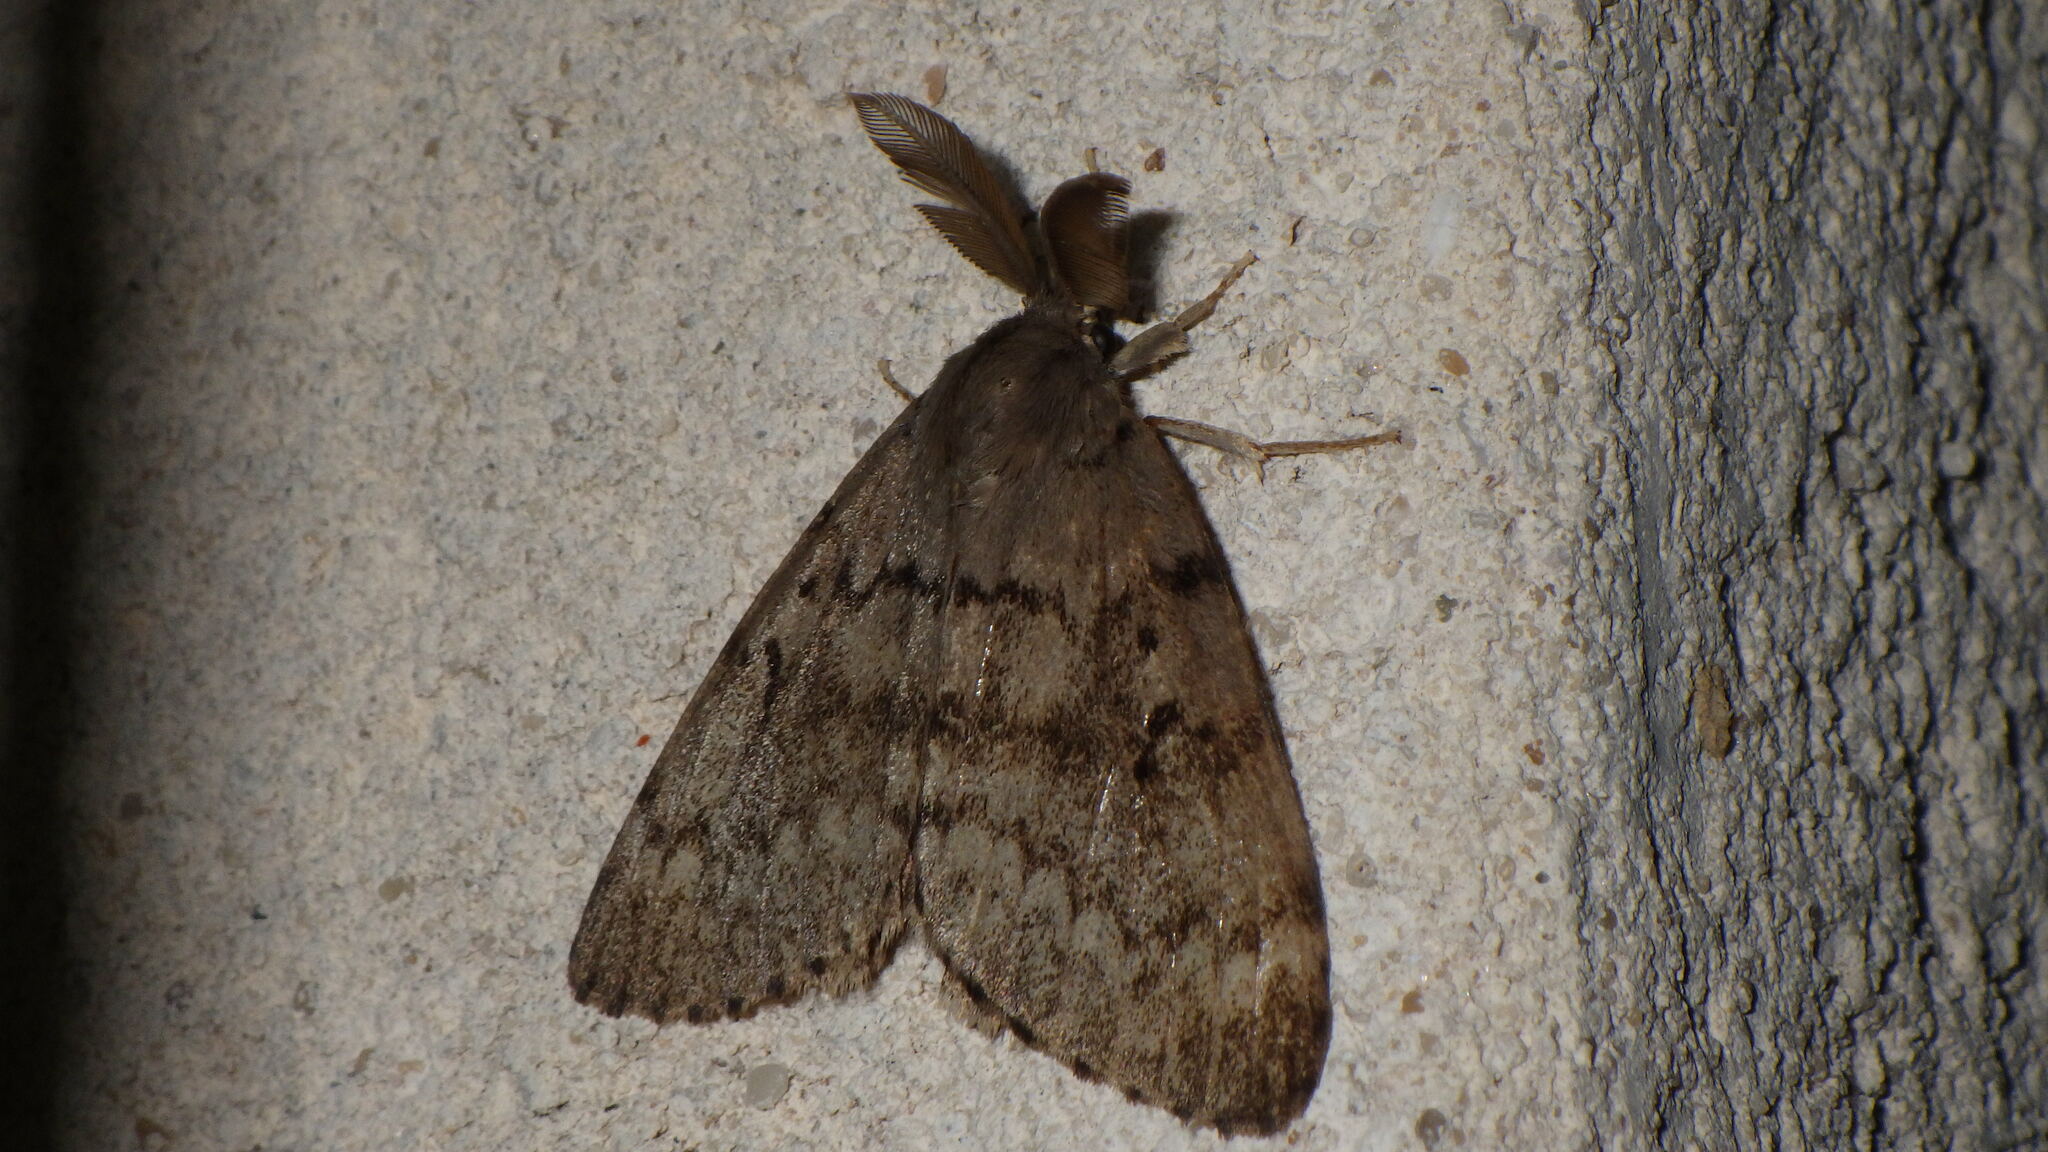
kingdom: Animalia
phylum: Arthropoda
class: Insecta
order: Lepidoptera
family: Erebidae
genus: Lymantria
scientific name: Lymantria dispar
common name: Gypsy moth
